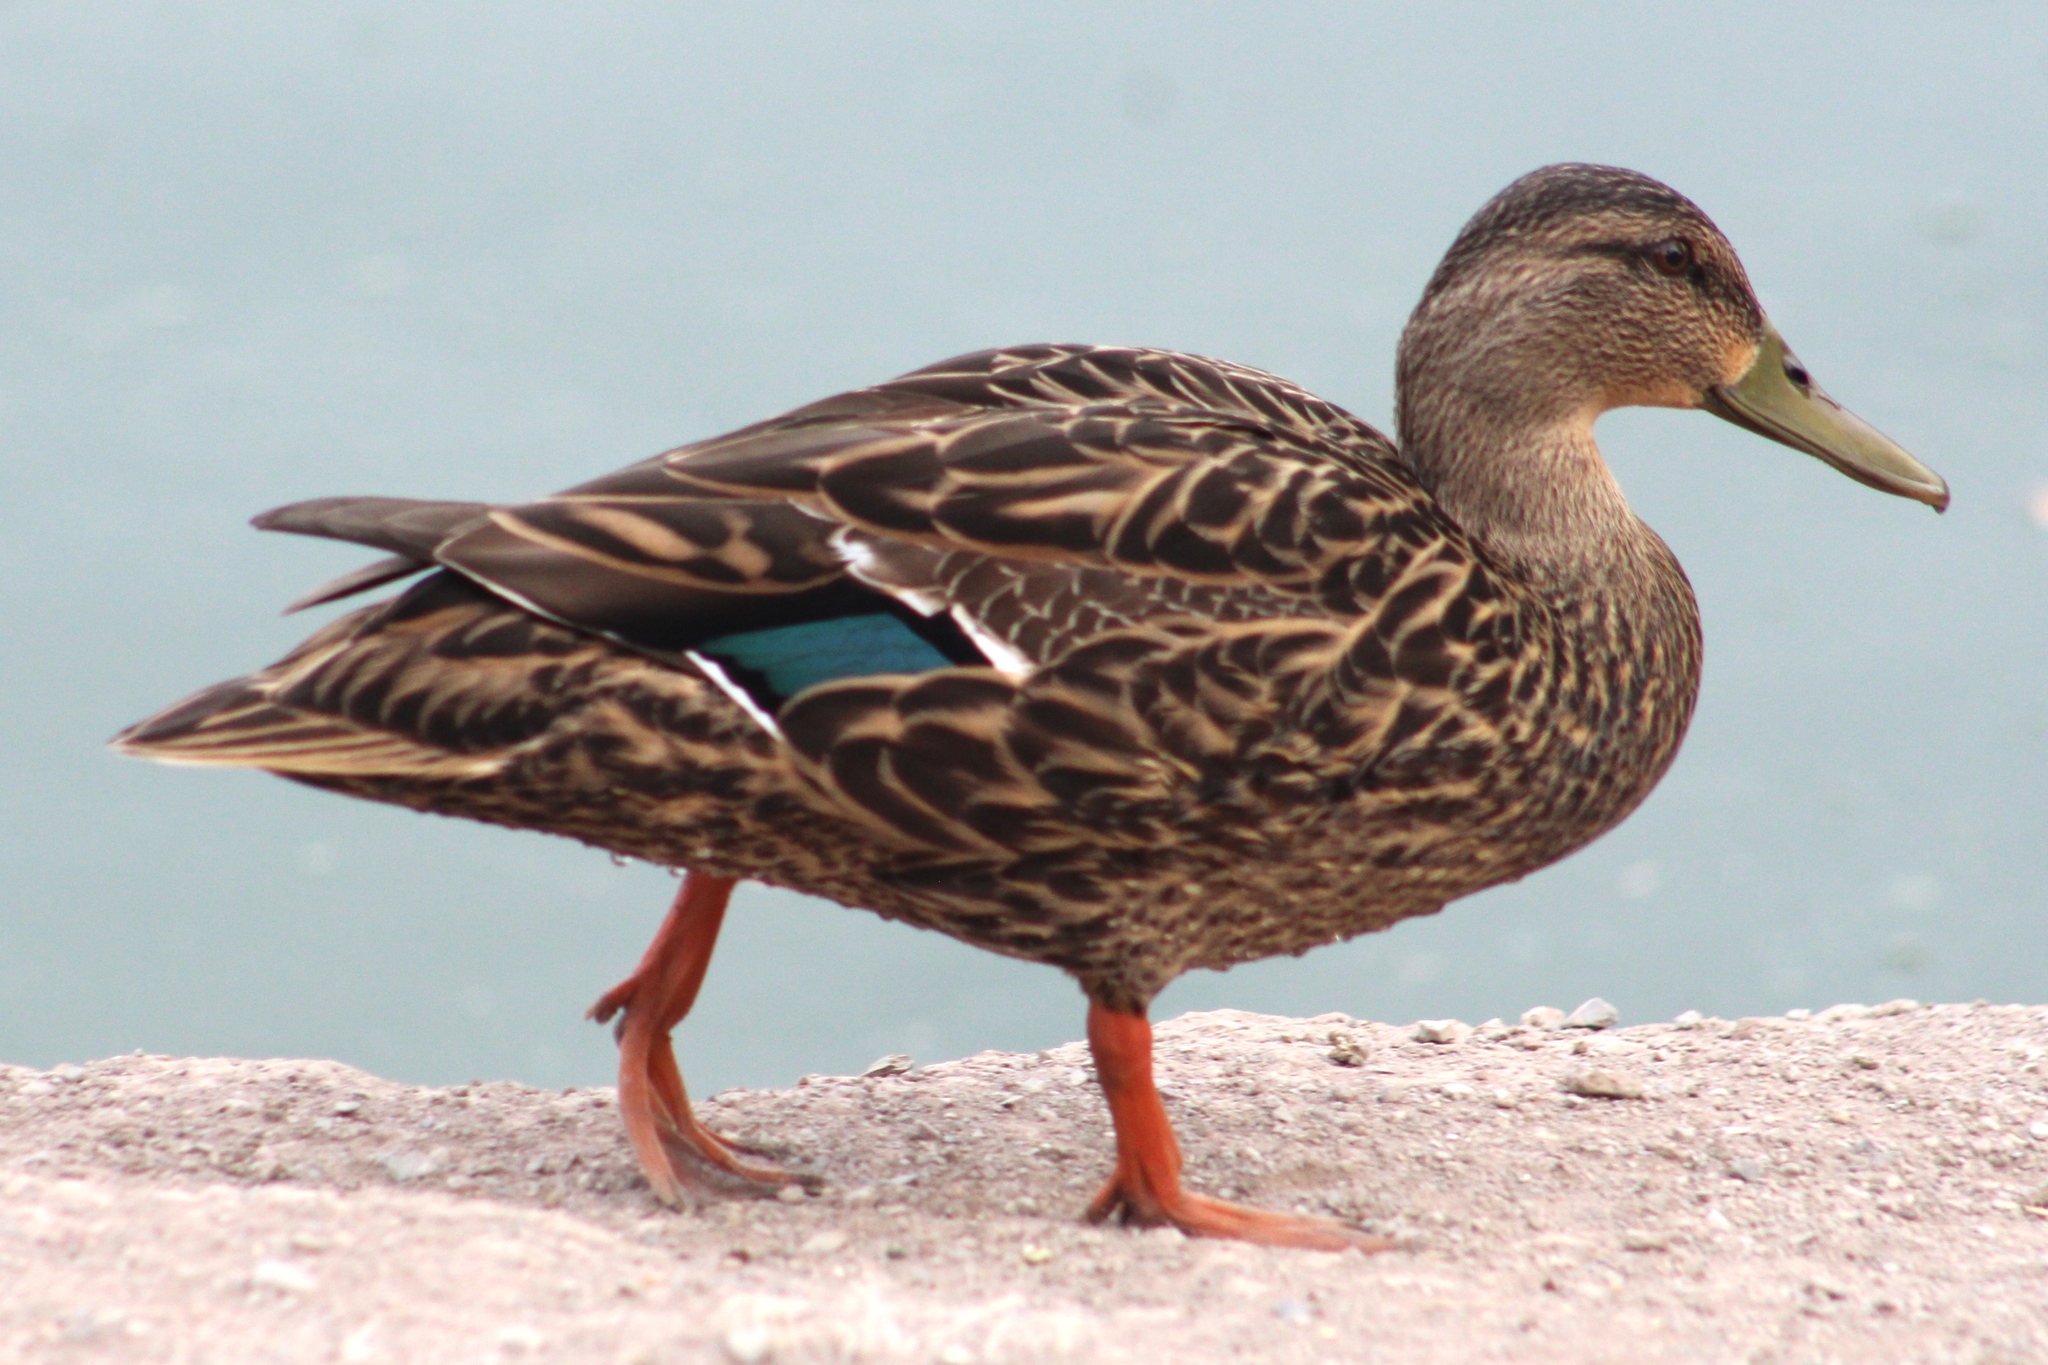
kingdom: Animalia
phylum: Chordata
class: Aves
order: Anseriformes
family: Anatidae
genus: Anas
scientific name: Anas diazi
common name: Mexican duck
